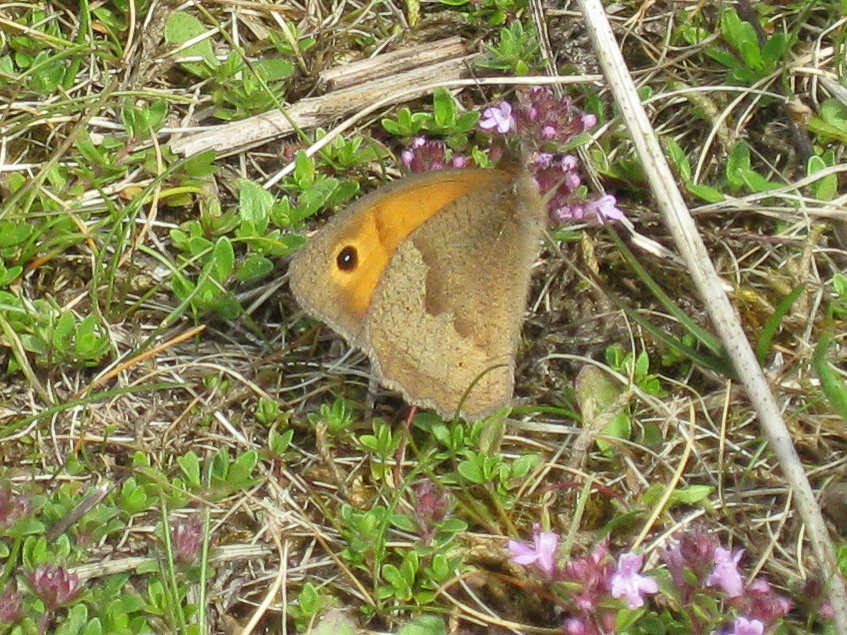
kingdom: Animalia
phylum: Arthropoda
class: Insecta
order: Lepidoptera
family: Nymphalidae
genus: Maniola
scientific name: Maniola jurtina
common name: Meadow brown
